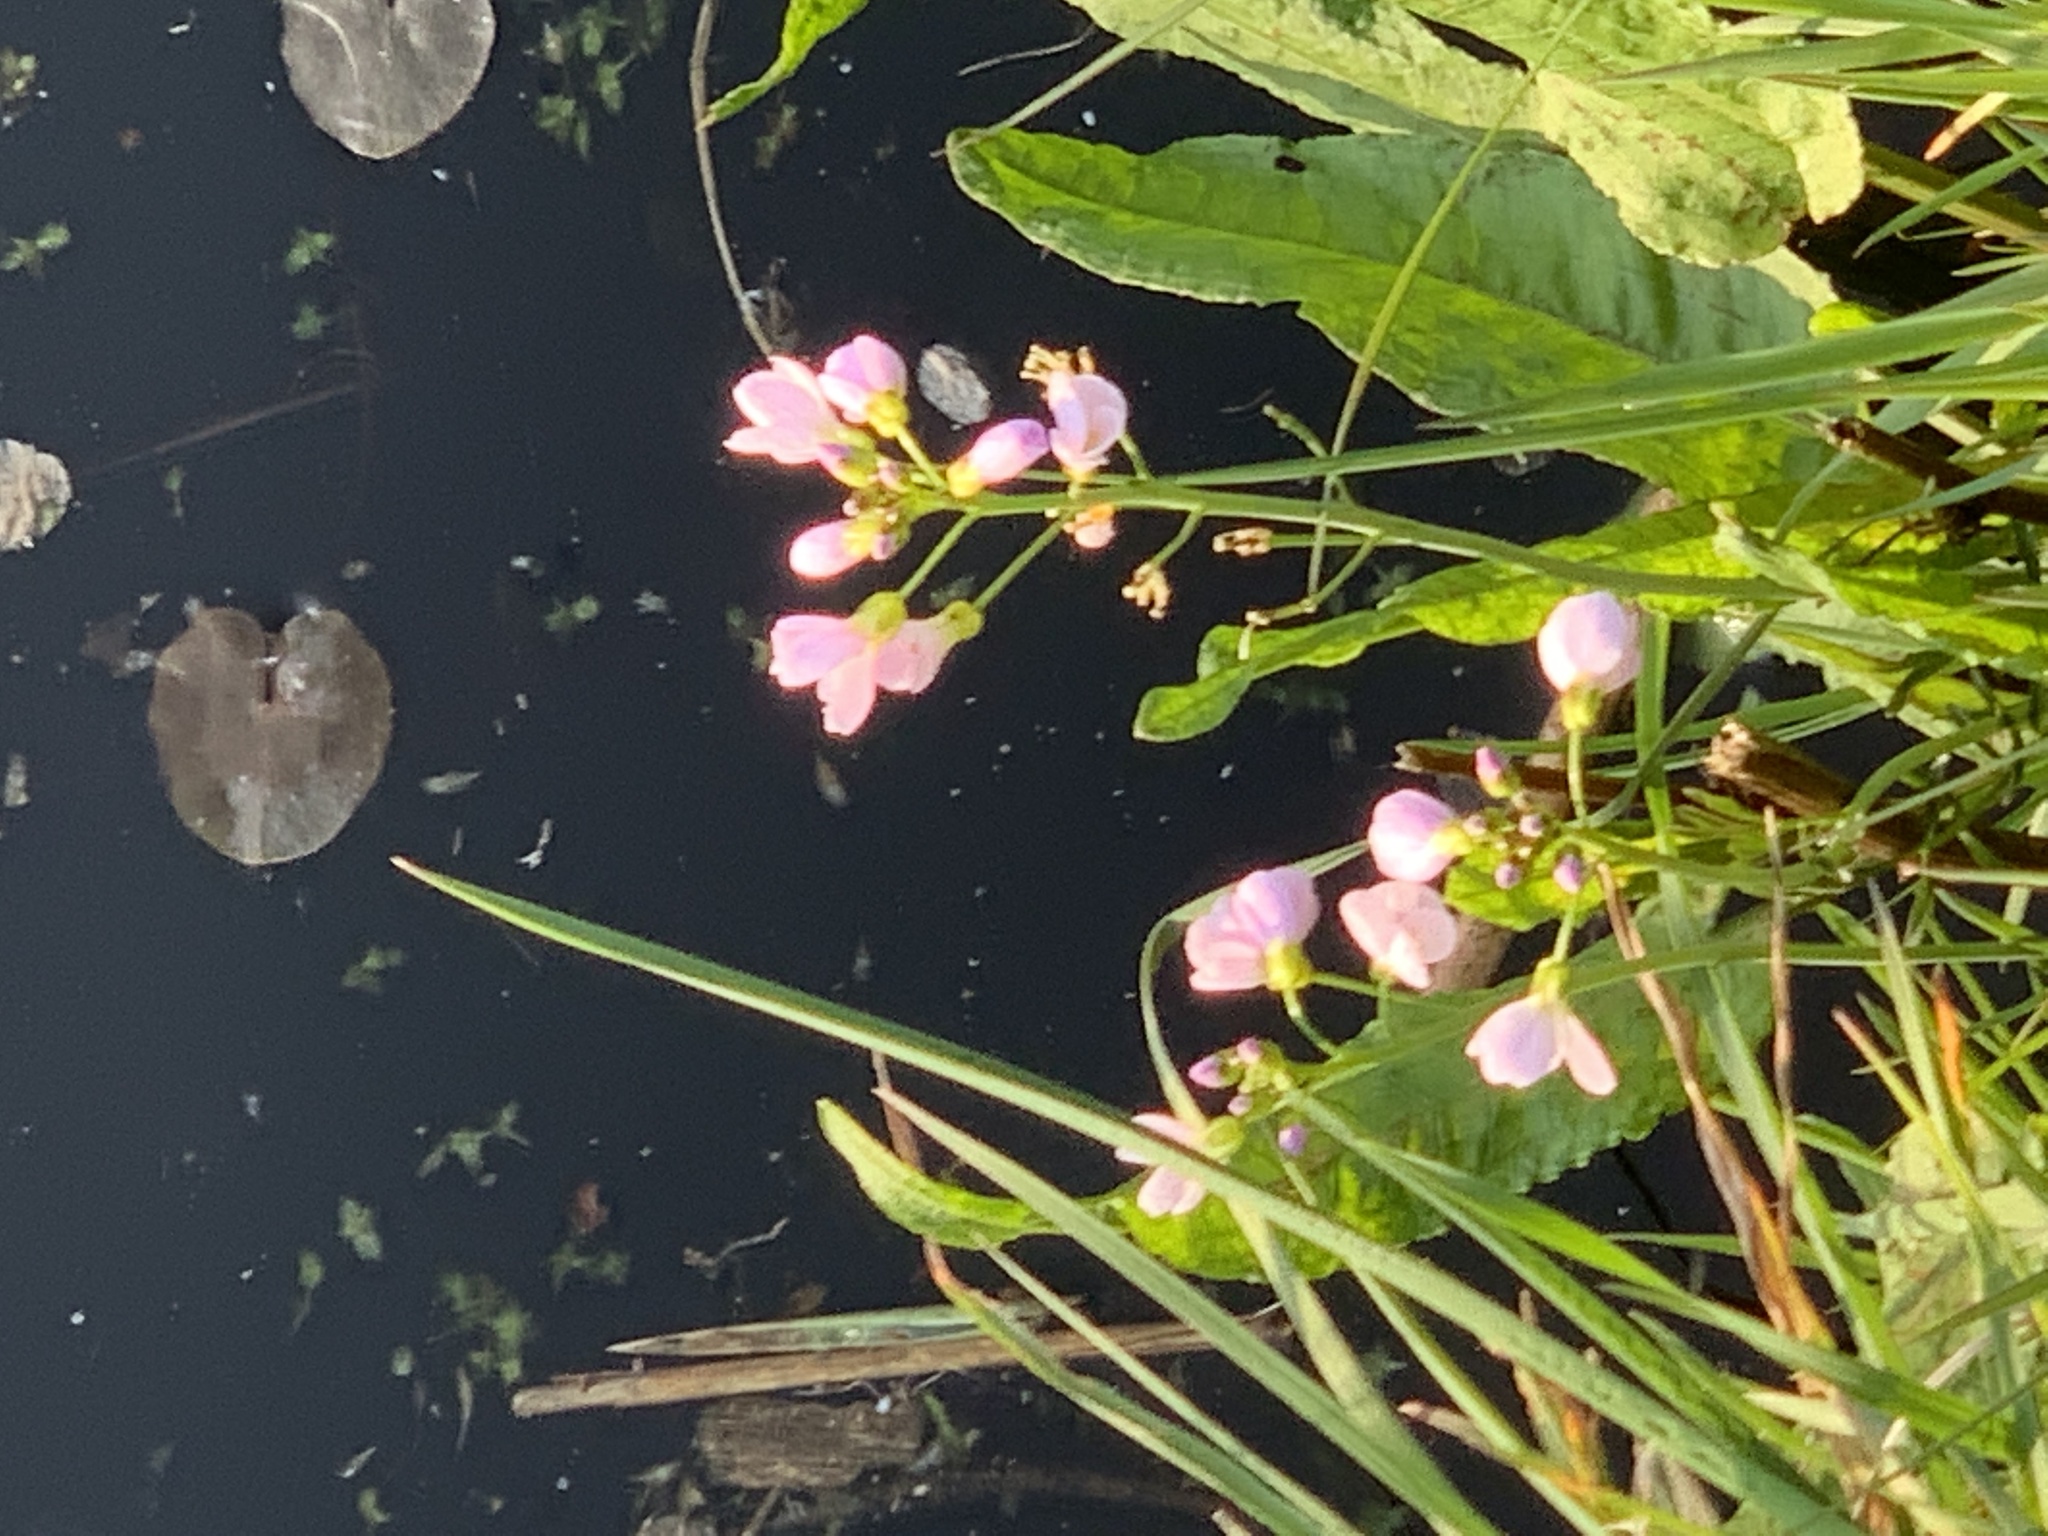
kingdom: Plantae
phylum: Tracheophyta
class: Magnoliopsida
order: Brassicales
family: Brassicaceae
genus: Cardamine
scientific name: Cardamine pratensis
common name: Cuckoo flower
